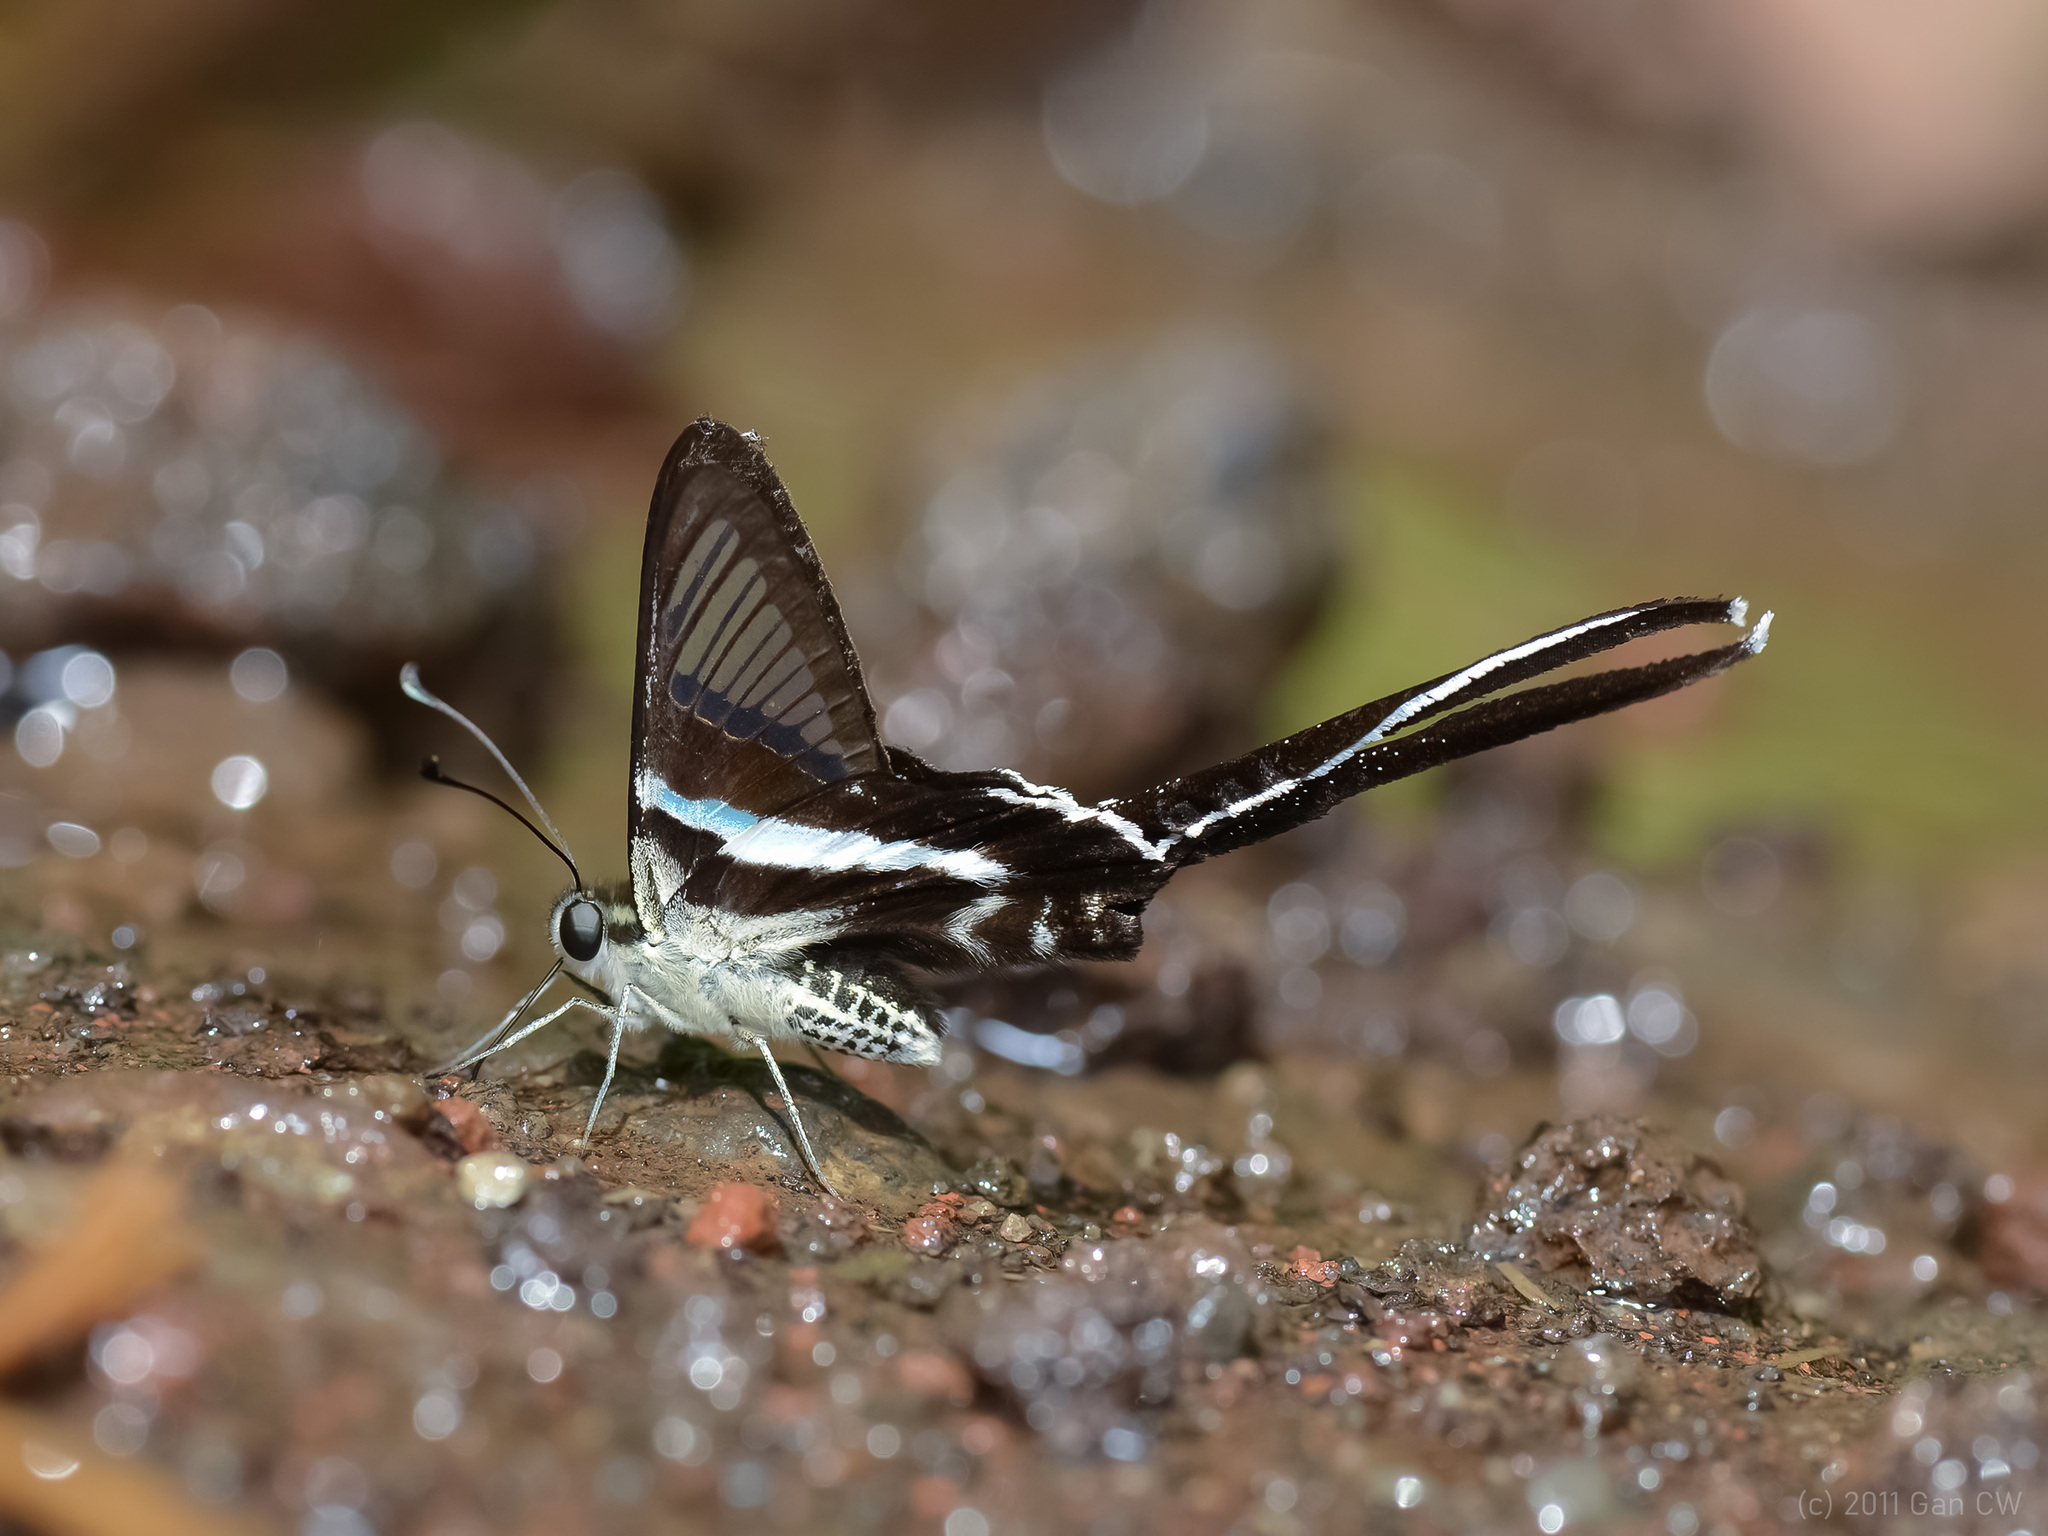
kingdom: Animalia
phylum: Arthropoda
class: Insecta
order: Lepidoptera
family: Papilionidae
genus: Lamproptera
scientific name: Lamproptera meges
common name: Green dragontail
